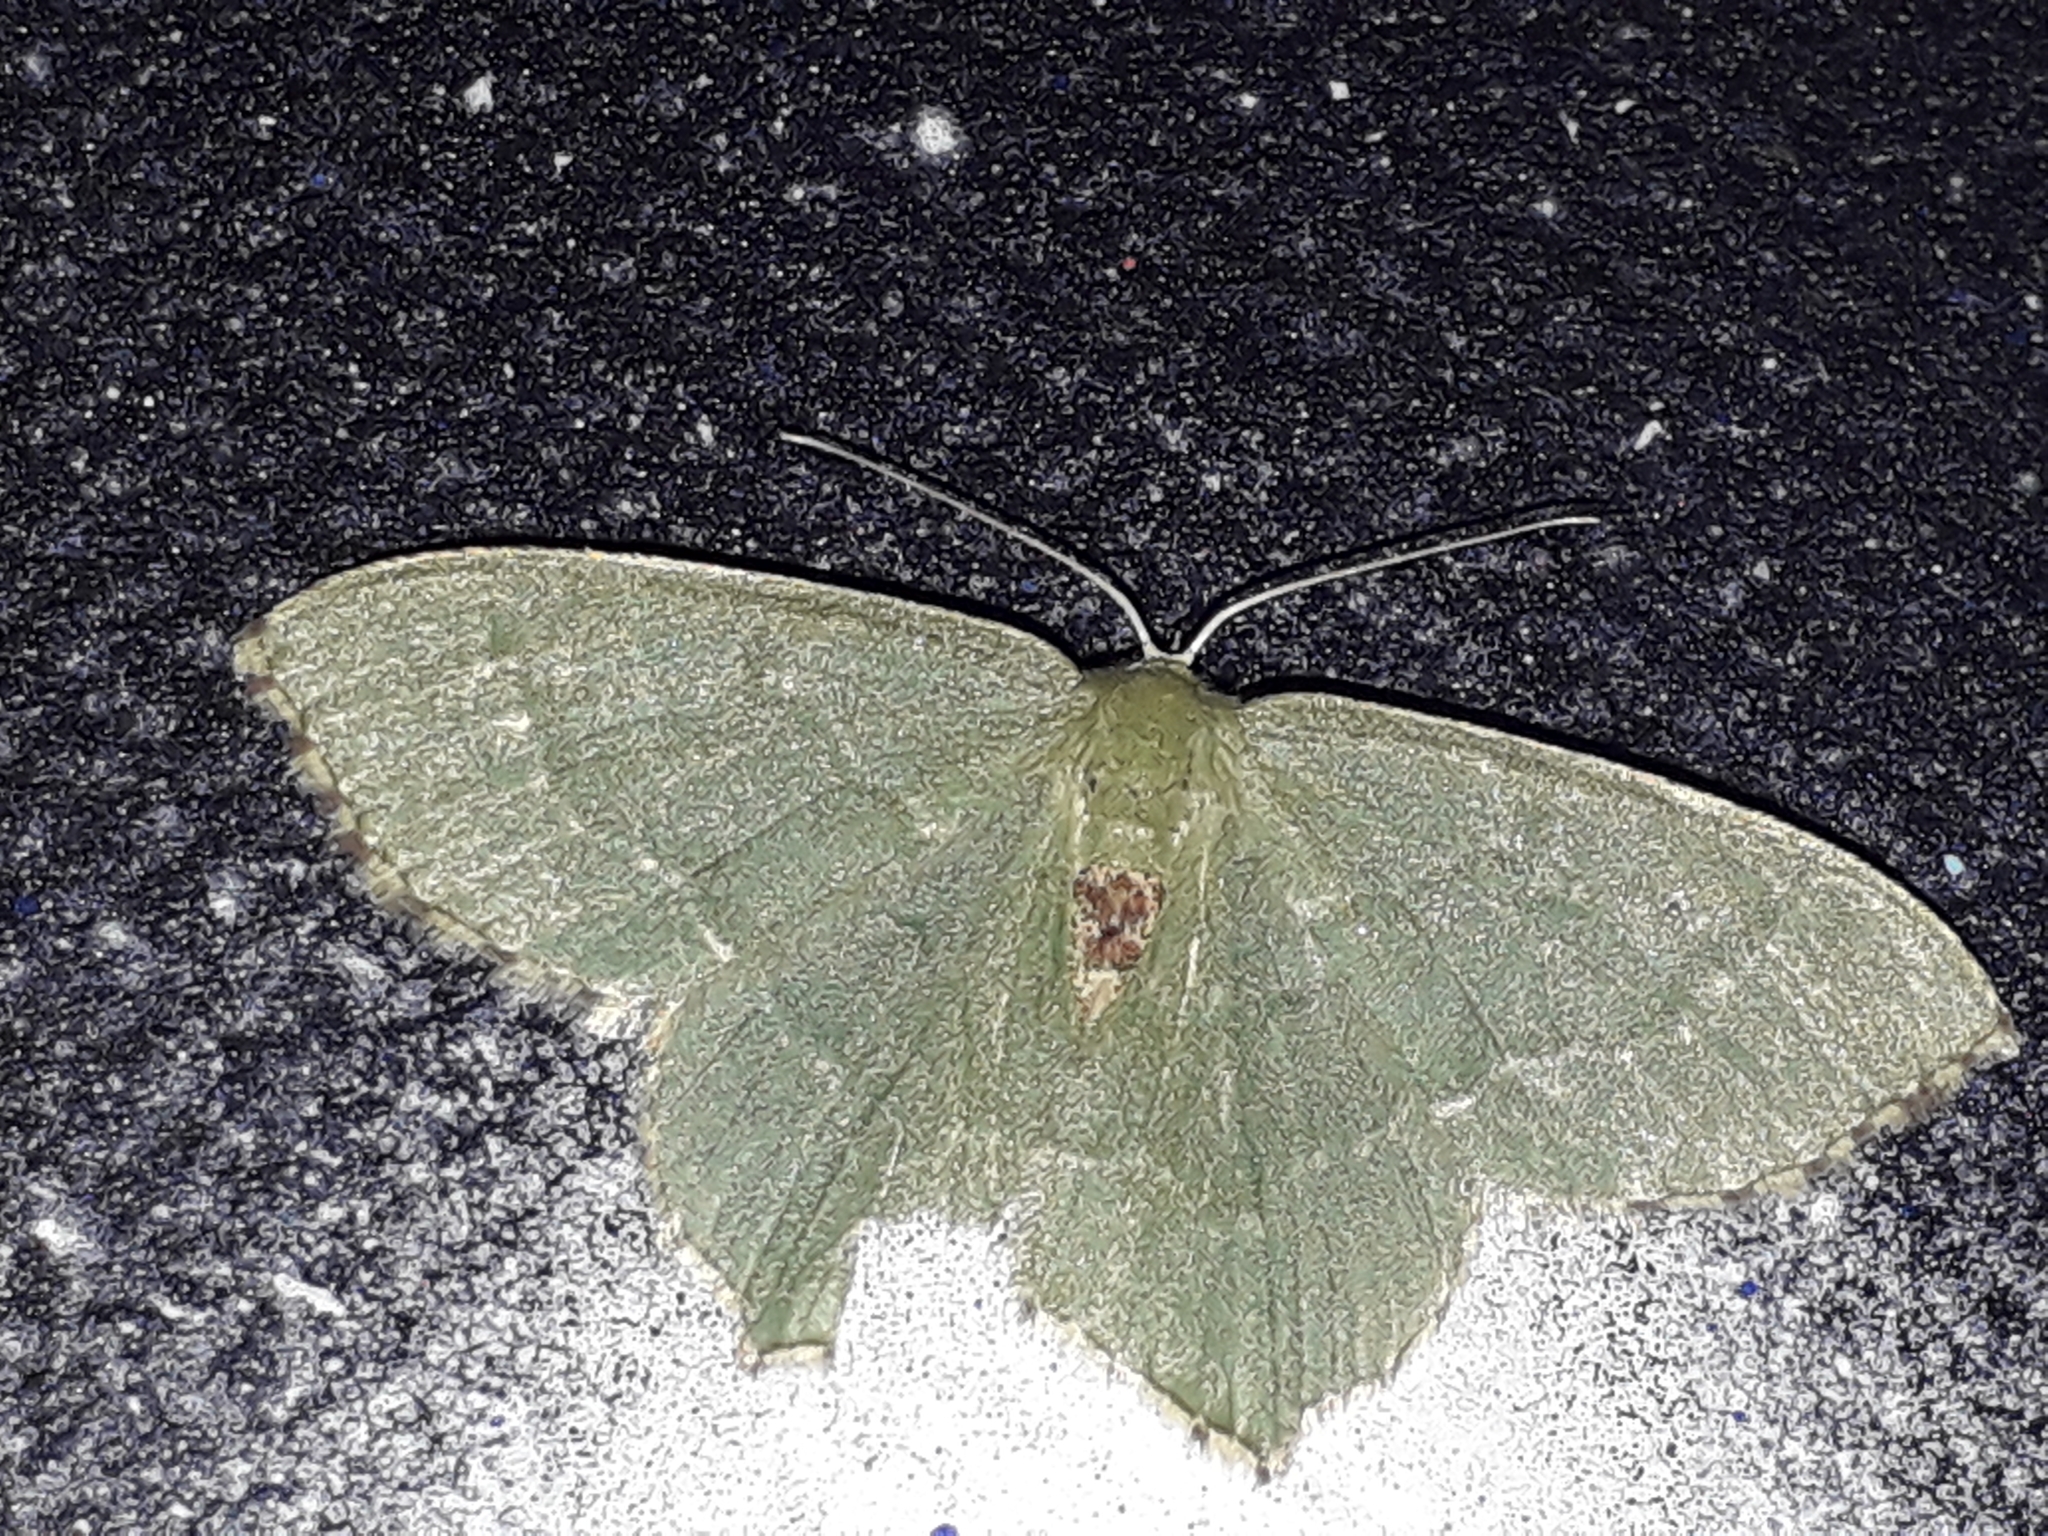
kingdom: Animalia
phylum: Arthropoda
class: Insecta
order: Lepidoptera
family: Geometridae
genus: Hemithea
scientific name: Hemithea aestivaria
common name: Common emerald
